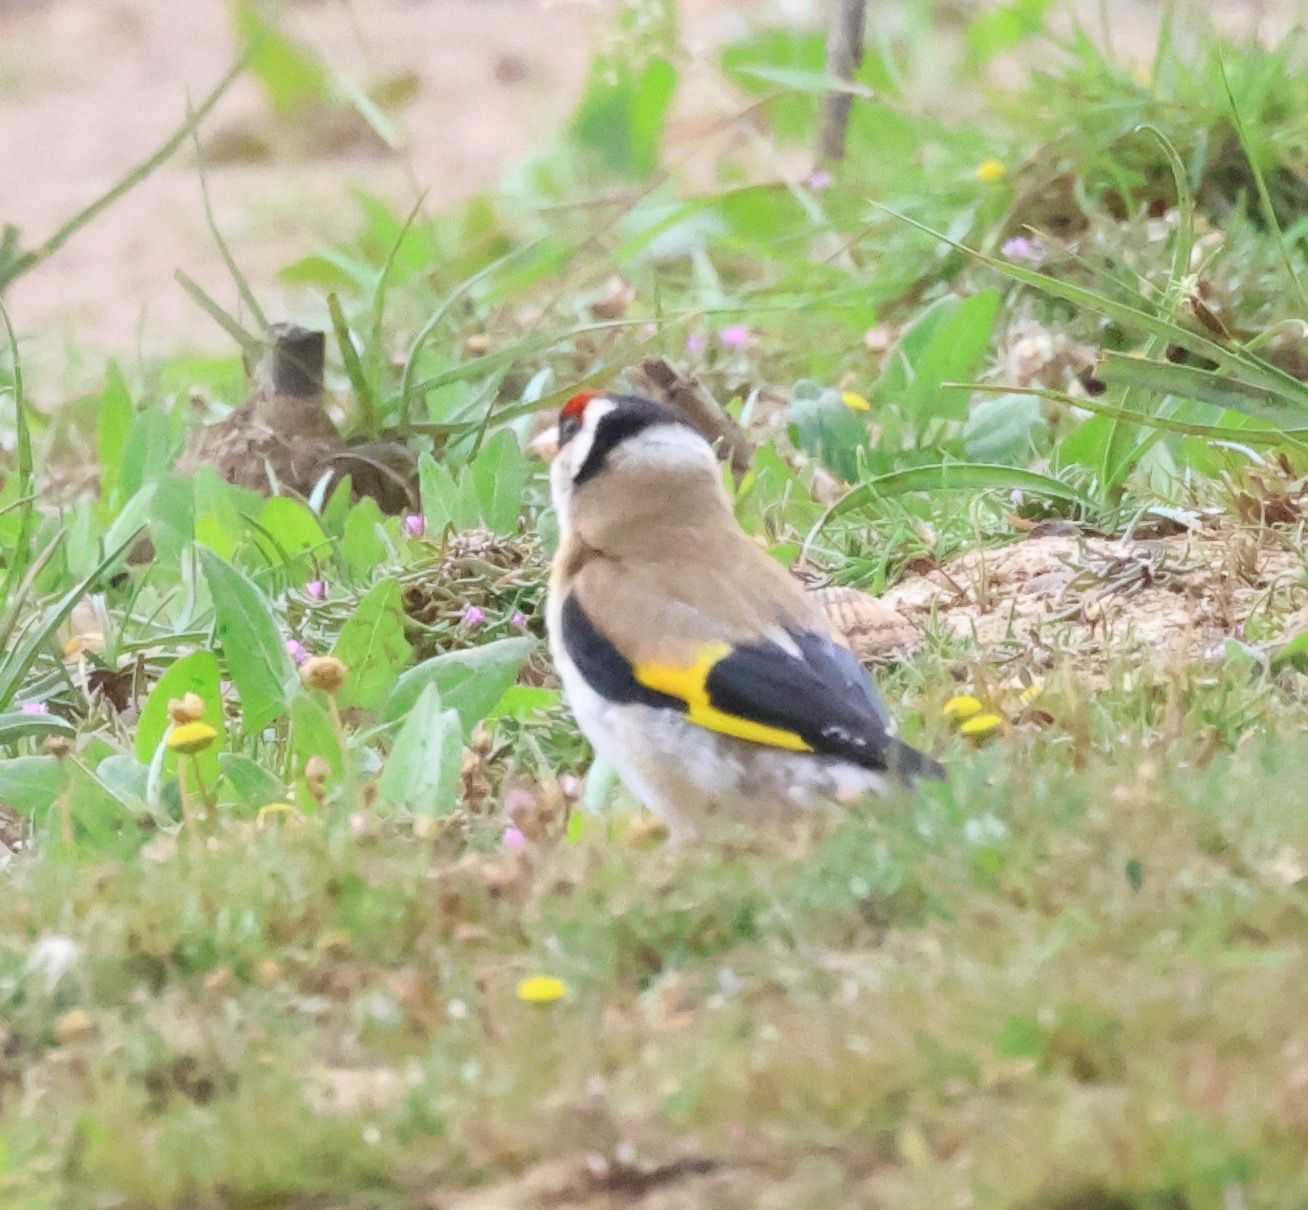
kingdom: Animalia
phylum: Chordata
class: Aves
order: Passeriformes
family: Fringillidae
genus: Carduelis
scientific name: Carduelis carduelis
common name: European goldfinch
